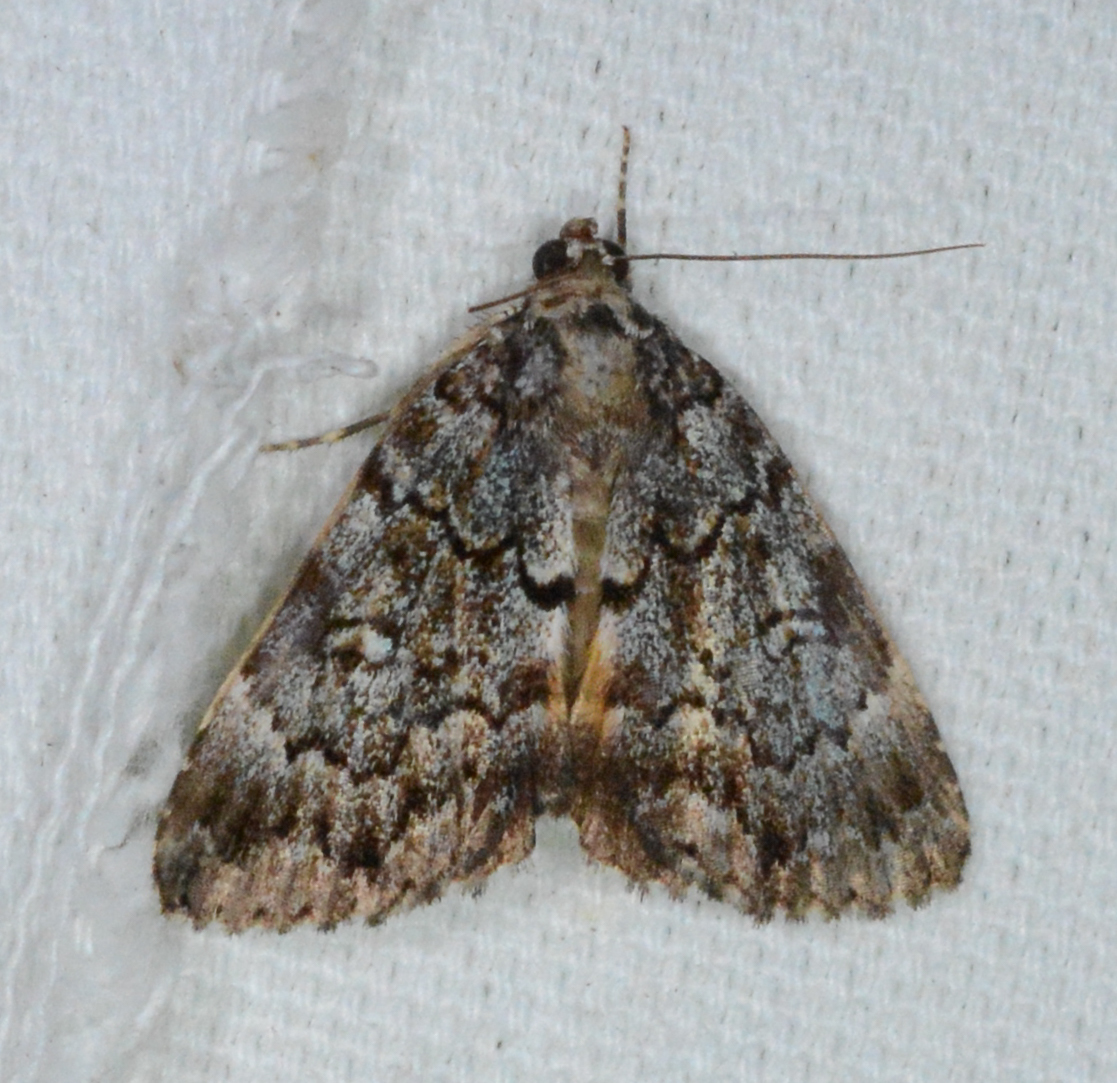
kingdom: Animalia
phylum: Arthropoda
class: Insecta
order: Lepidoptera
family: Erebidae
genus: Allotria
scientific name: Allotria elonympha
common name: False underwing
